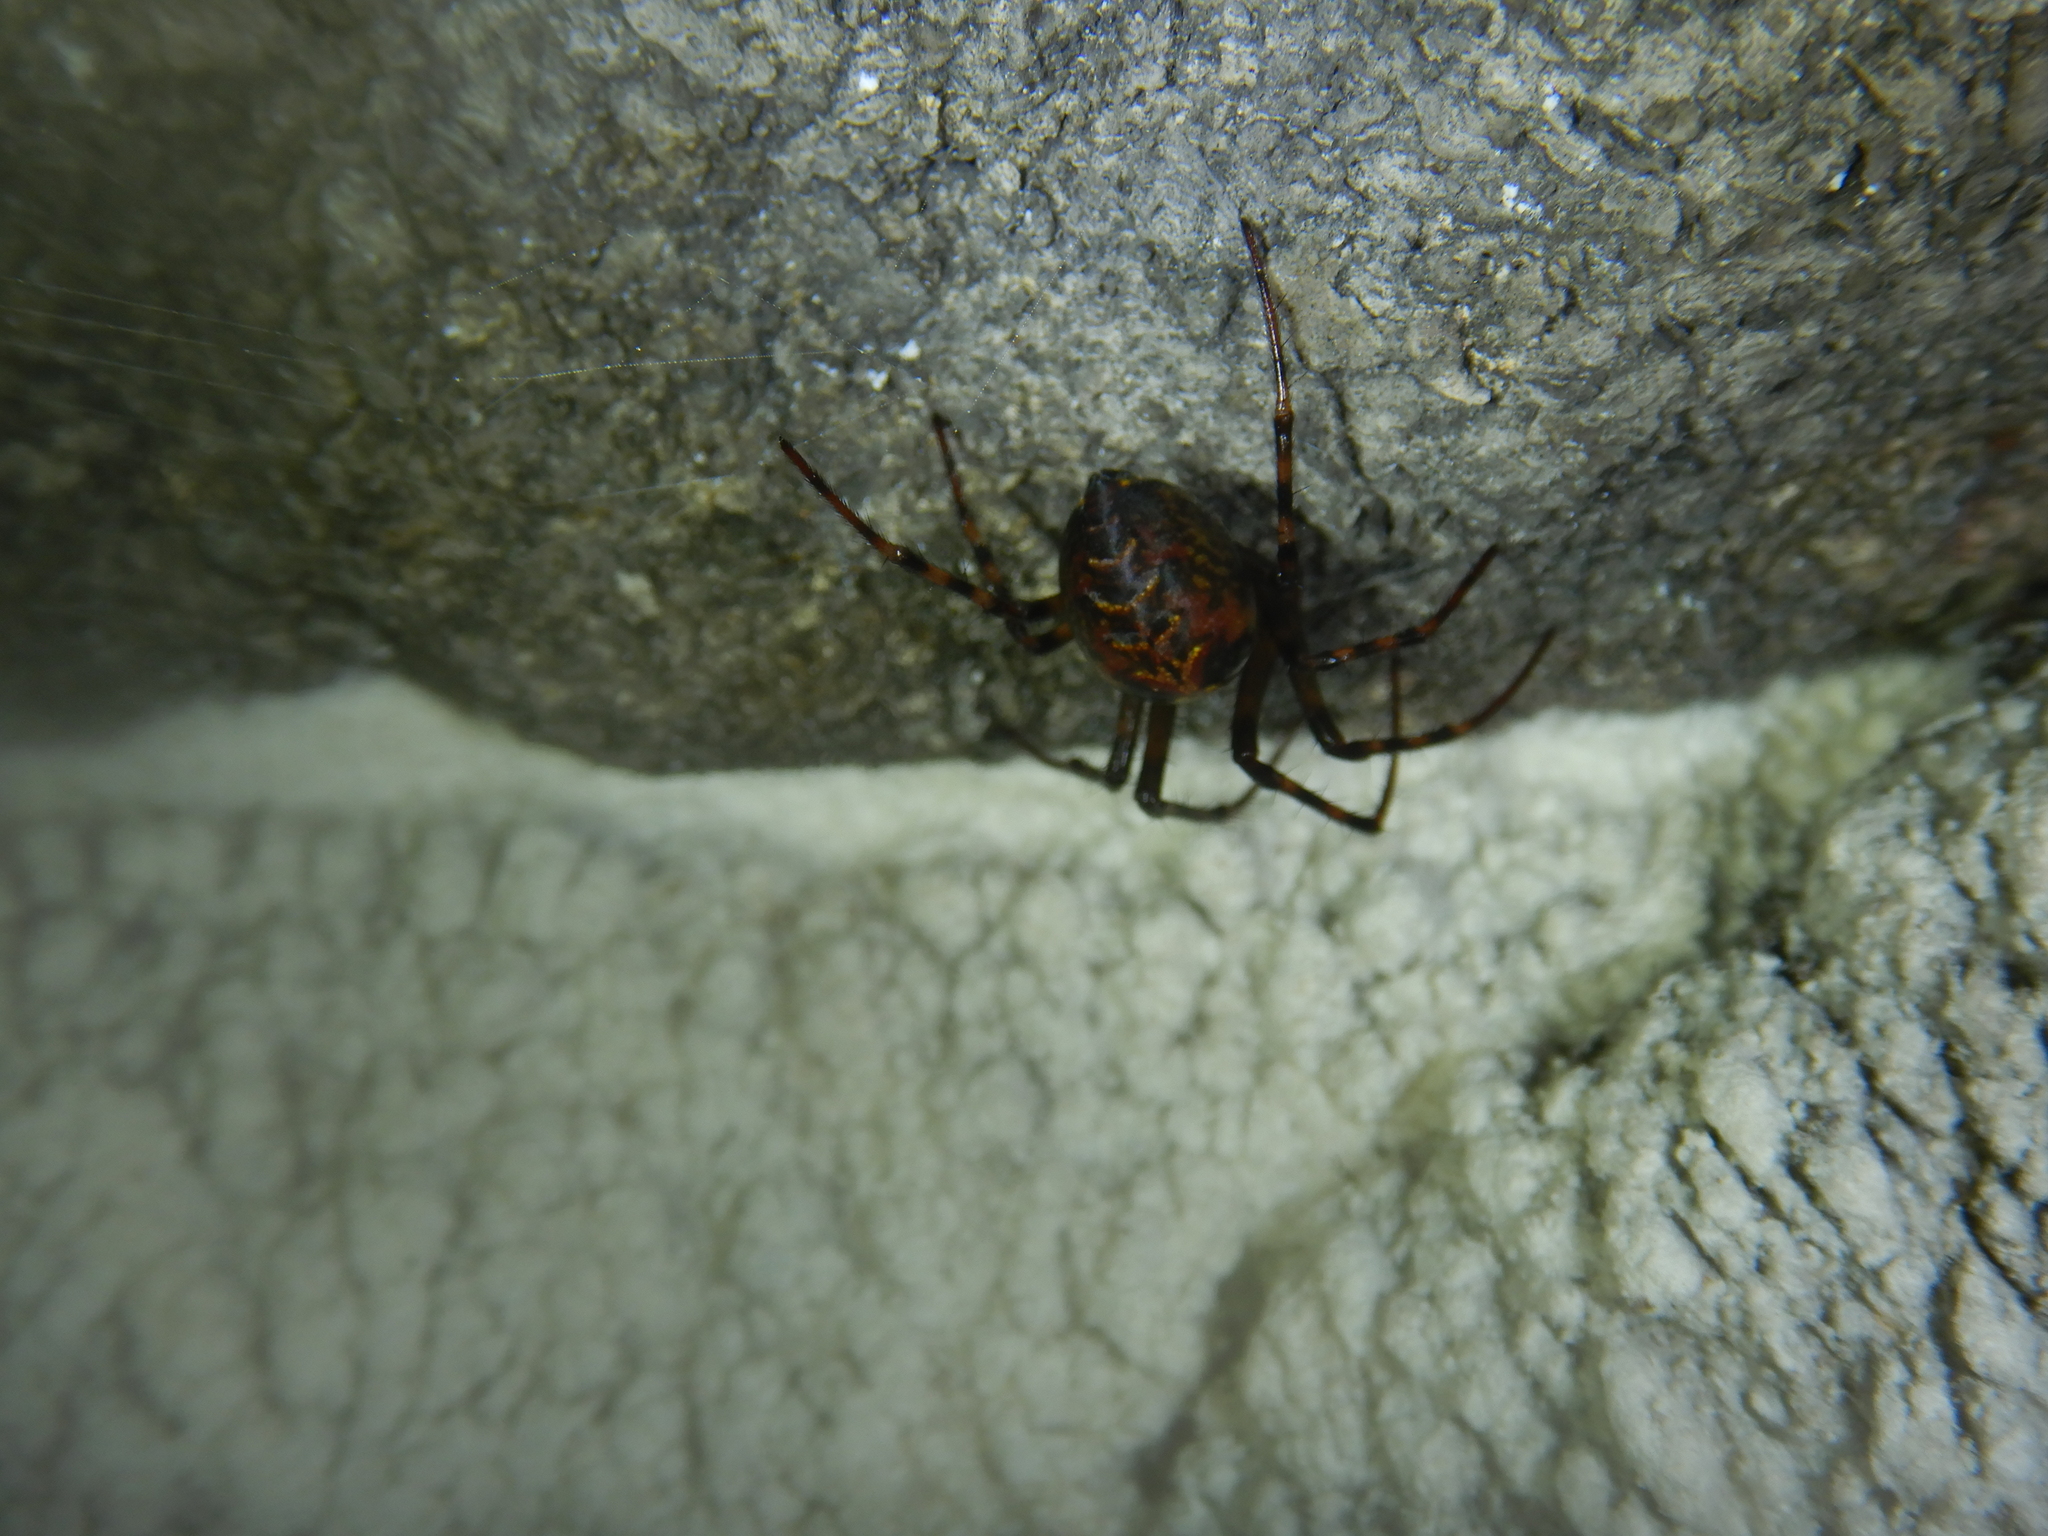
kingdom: Animalia
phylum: Arthropoda
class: Arachnida
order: Araneae
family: Tetragnathidae
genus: Meta
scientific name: Meta menardi
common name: Cave spider
